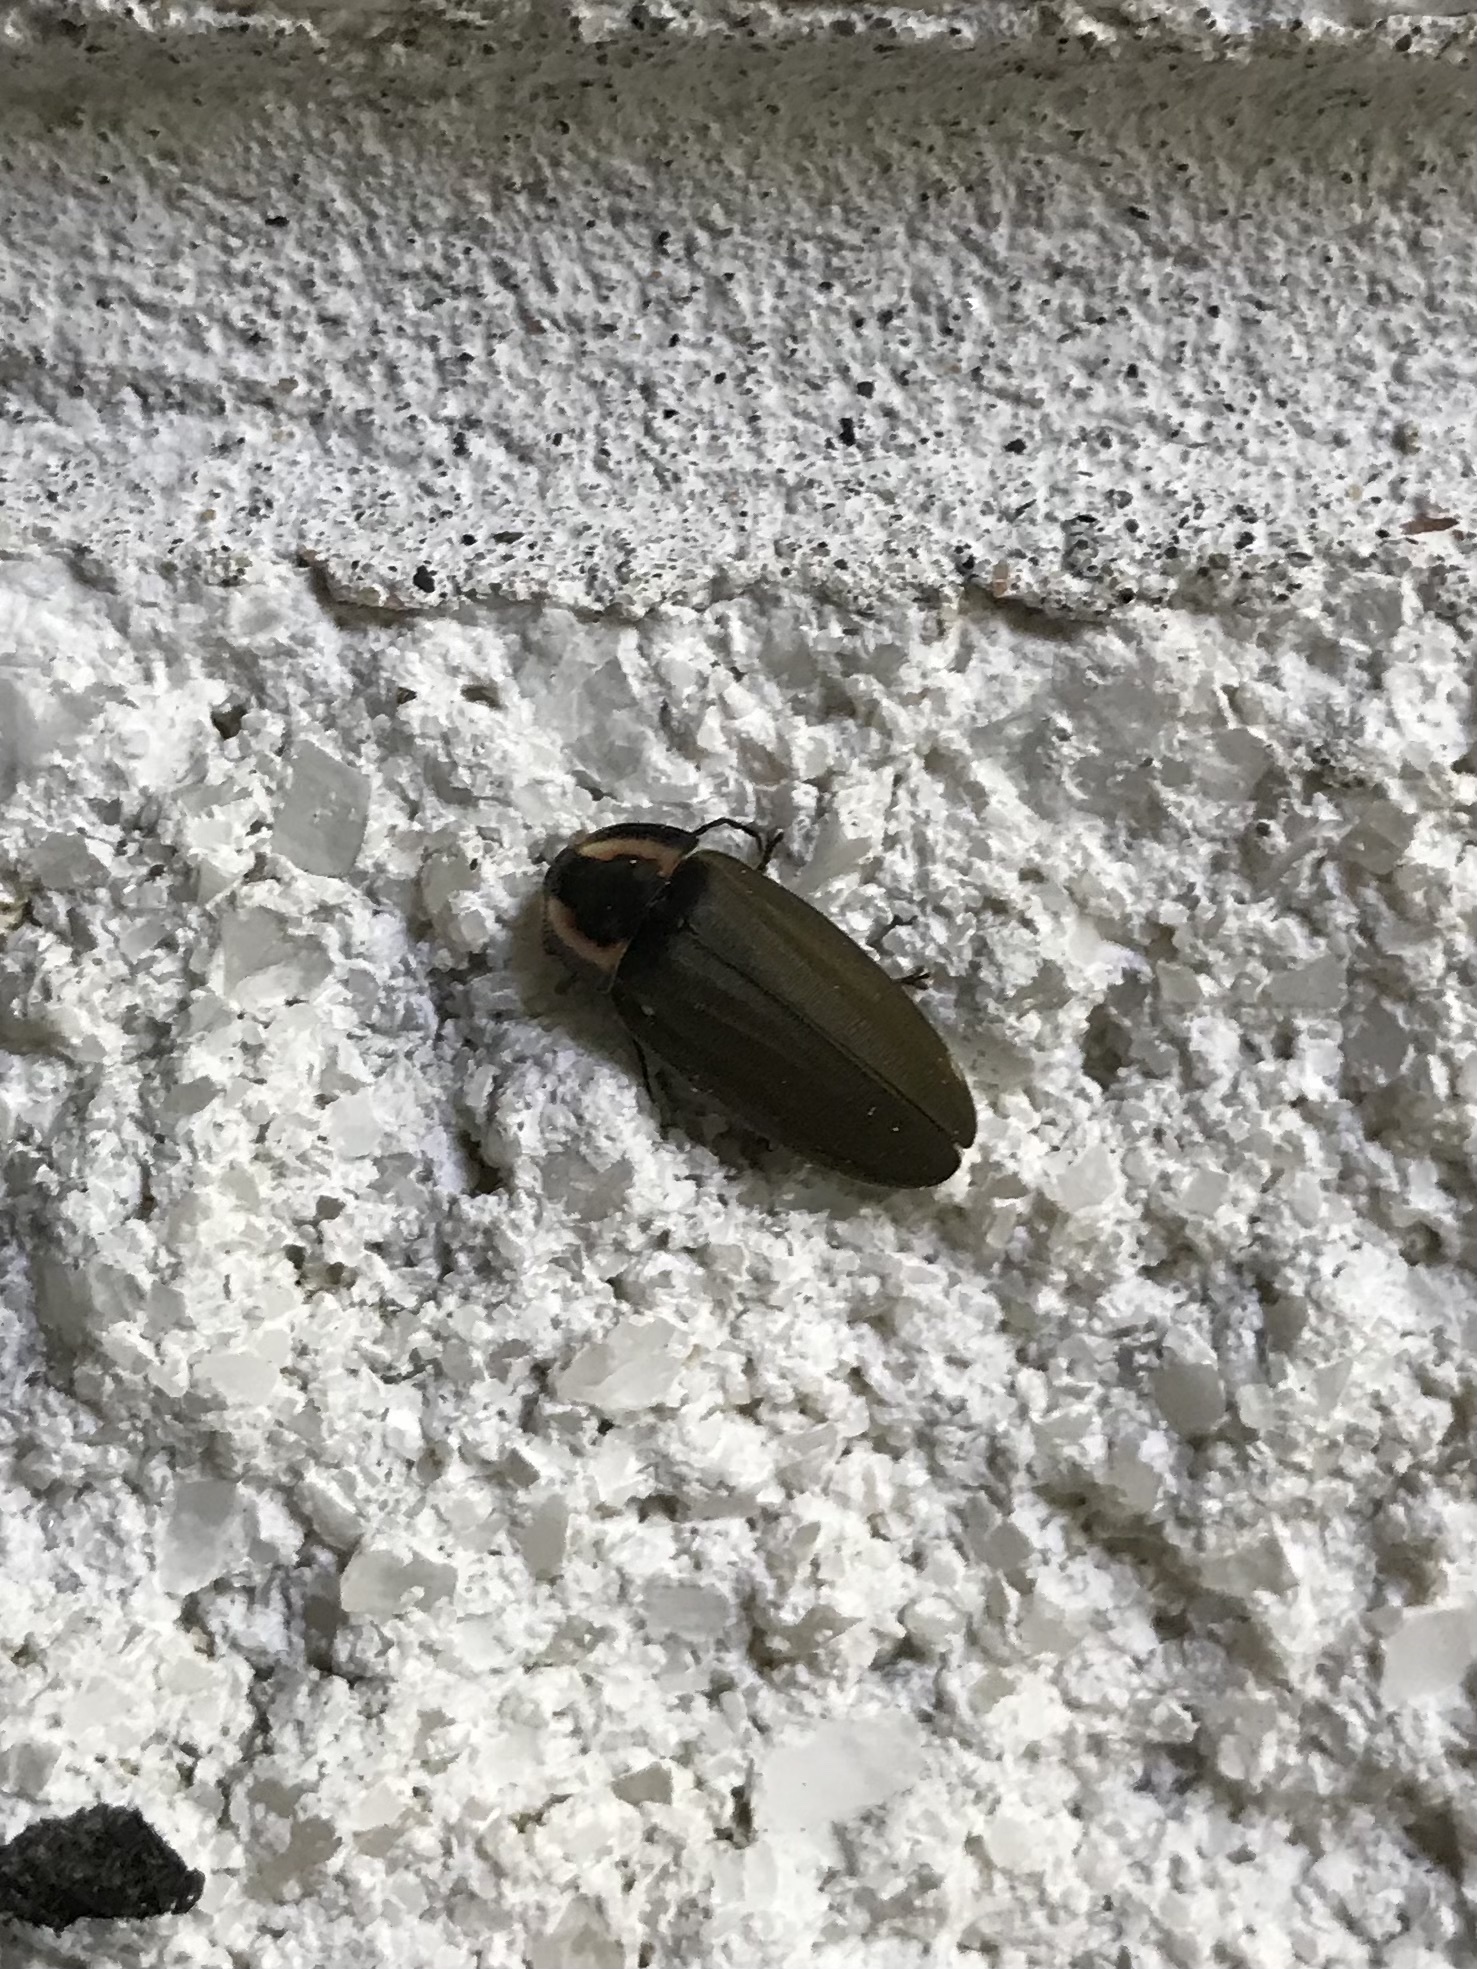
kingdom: Animalia
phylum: Arthropoda
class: Insecta
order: Coleoptera
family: Lampyridae
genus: Photinus
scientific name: Photinus corrusca
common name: Winter firefly
